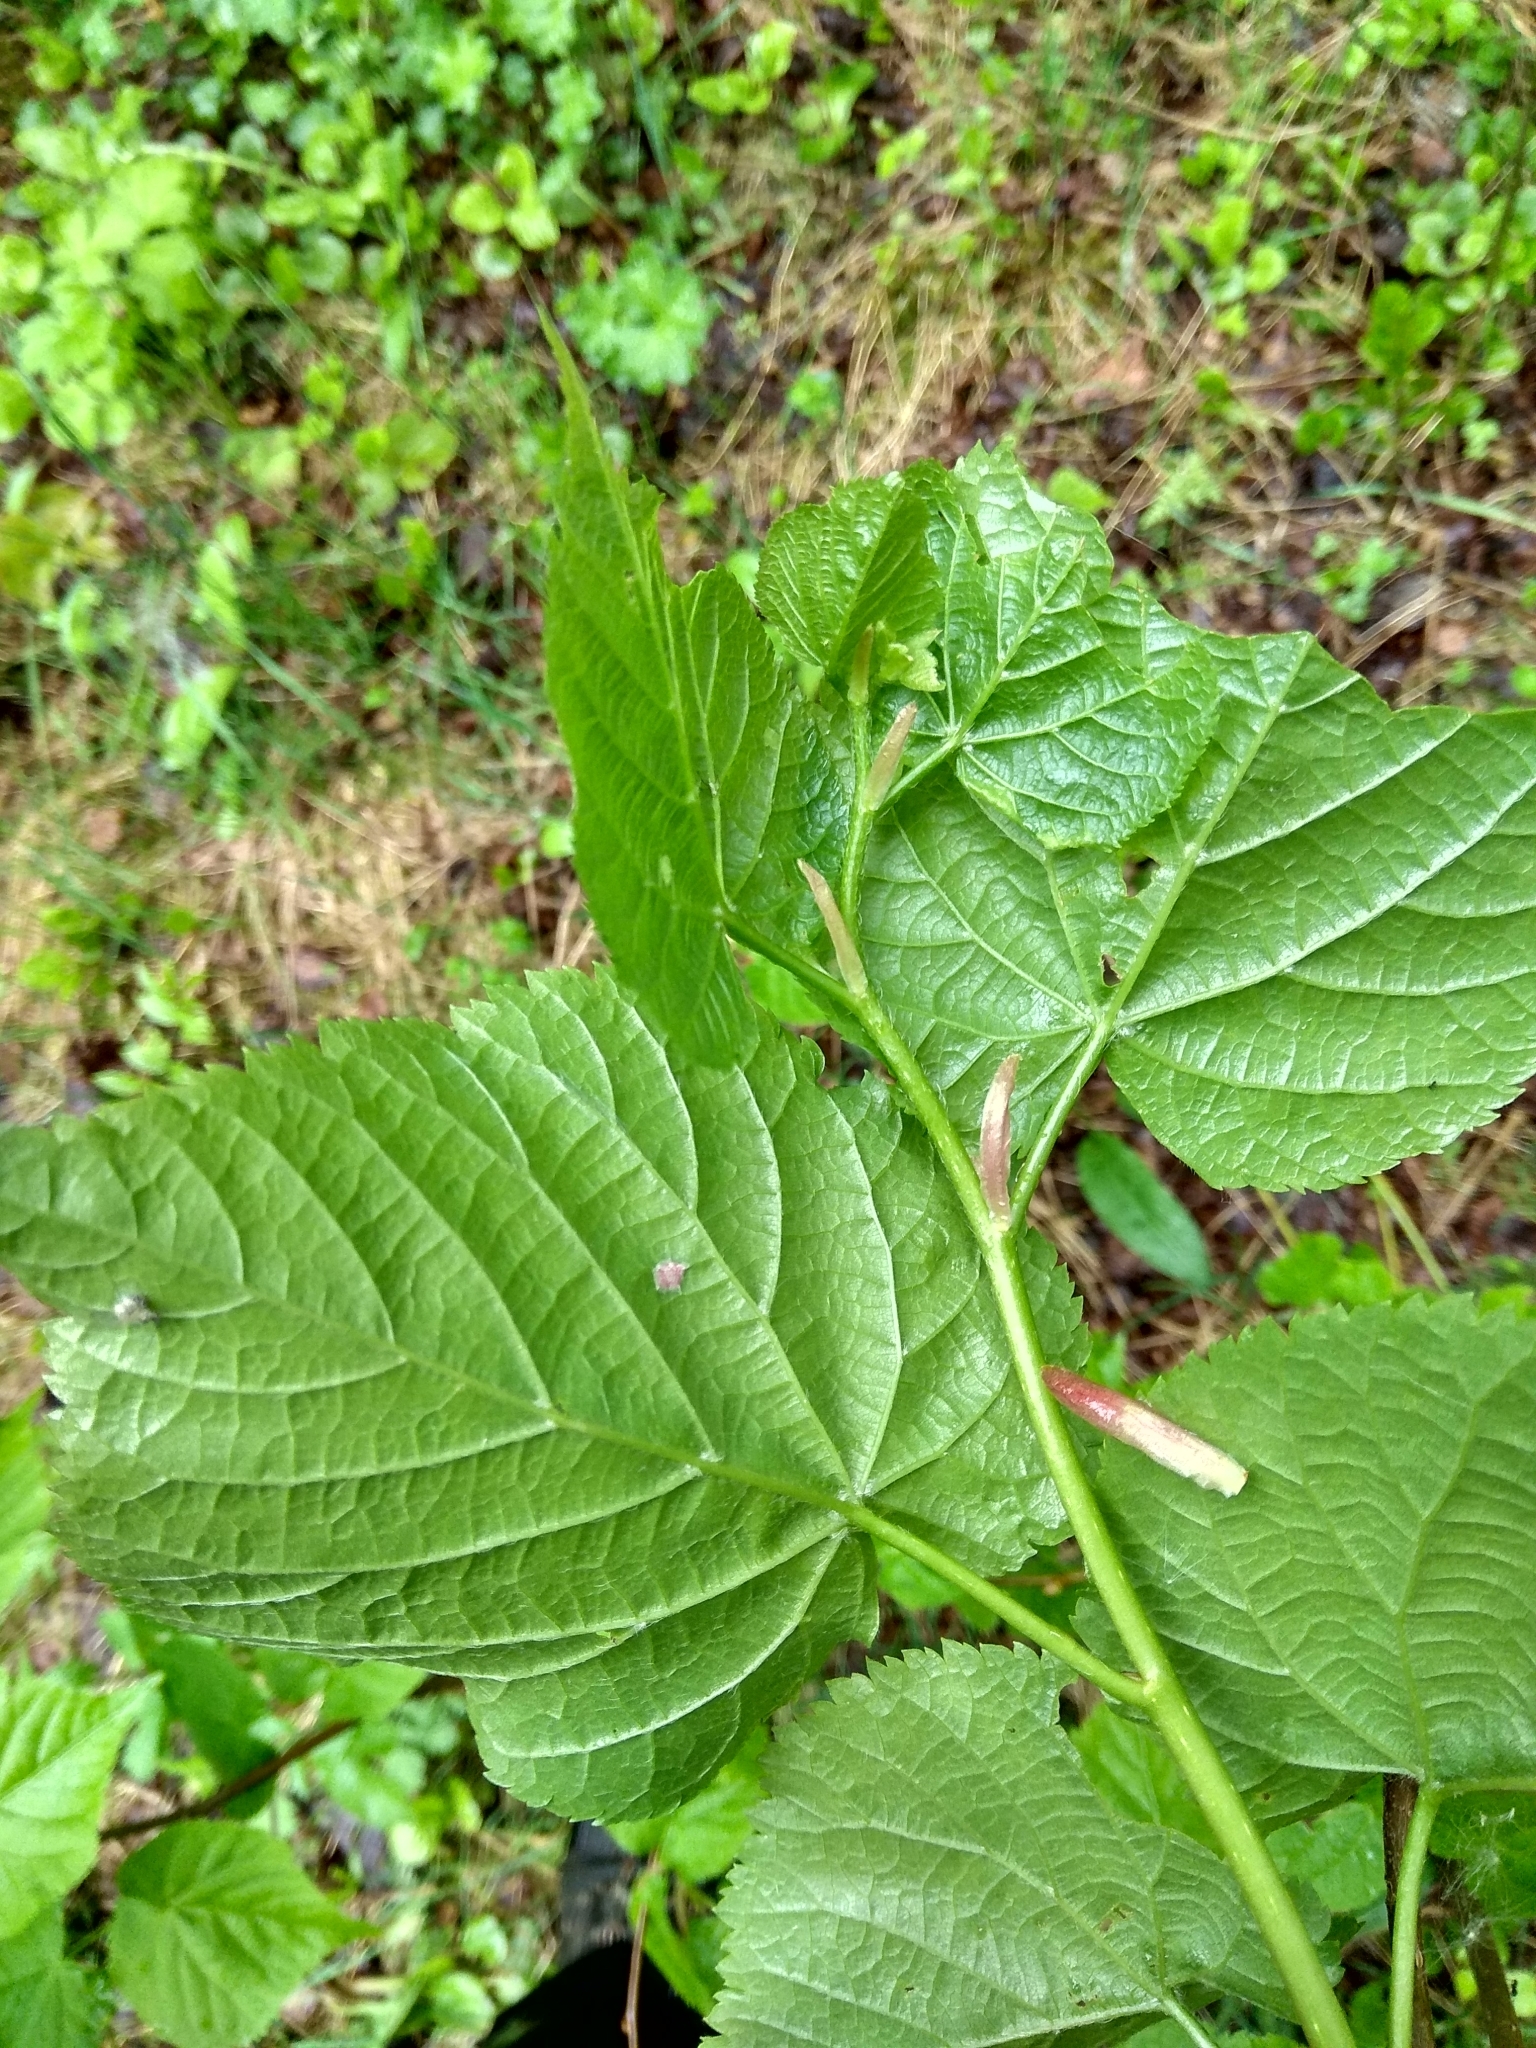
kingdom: Plantae
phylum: Tracheophyta
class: Magnoliopsida
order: Malvales
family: Malvaceae
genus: Tilia
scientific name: Tilia cordata
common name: Small-leaved lime
